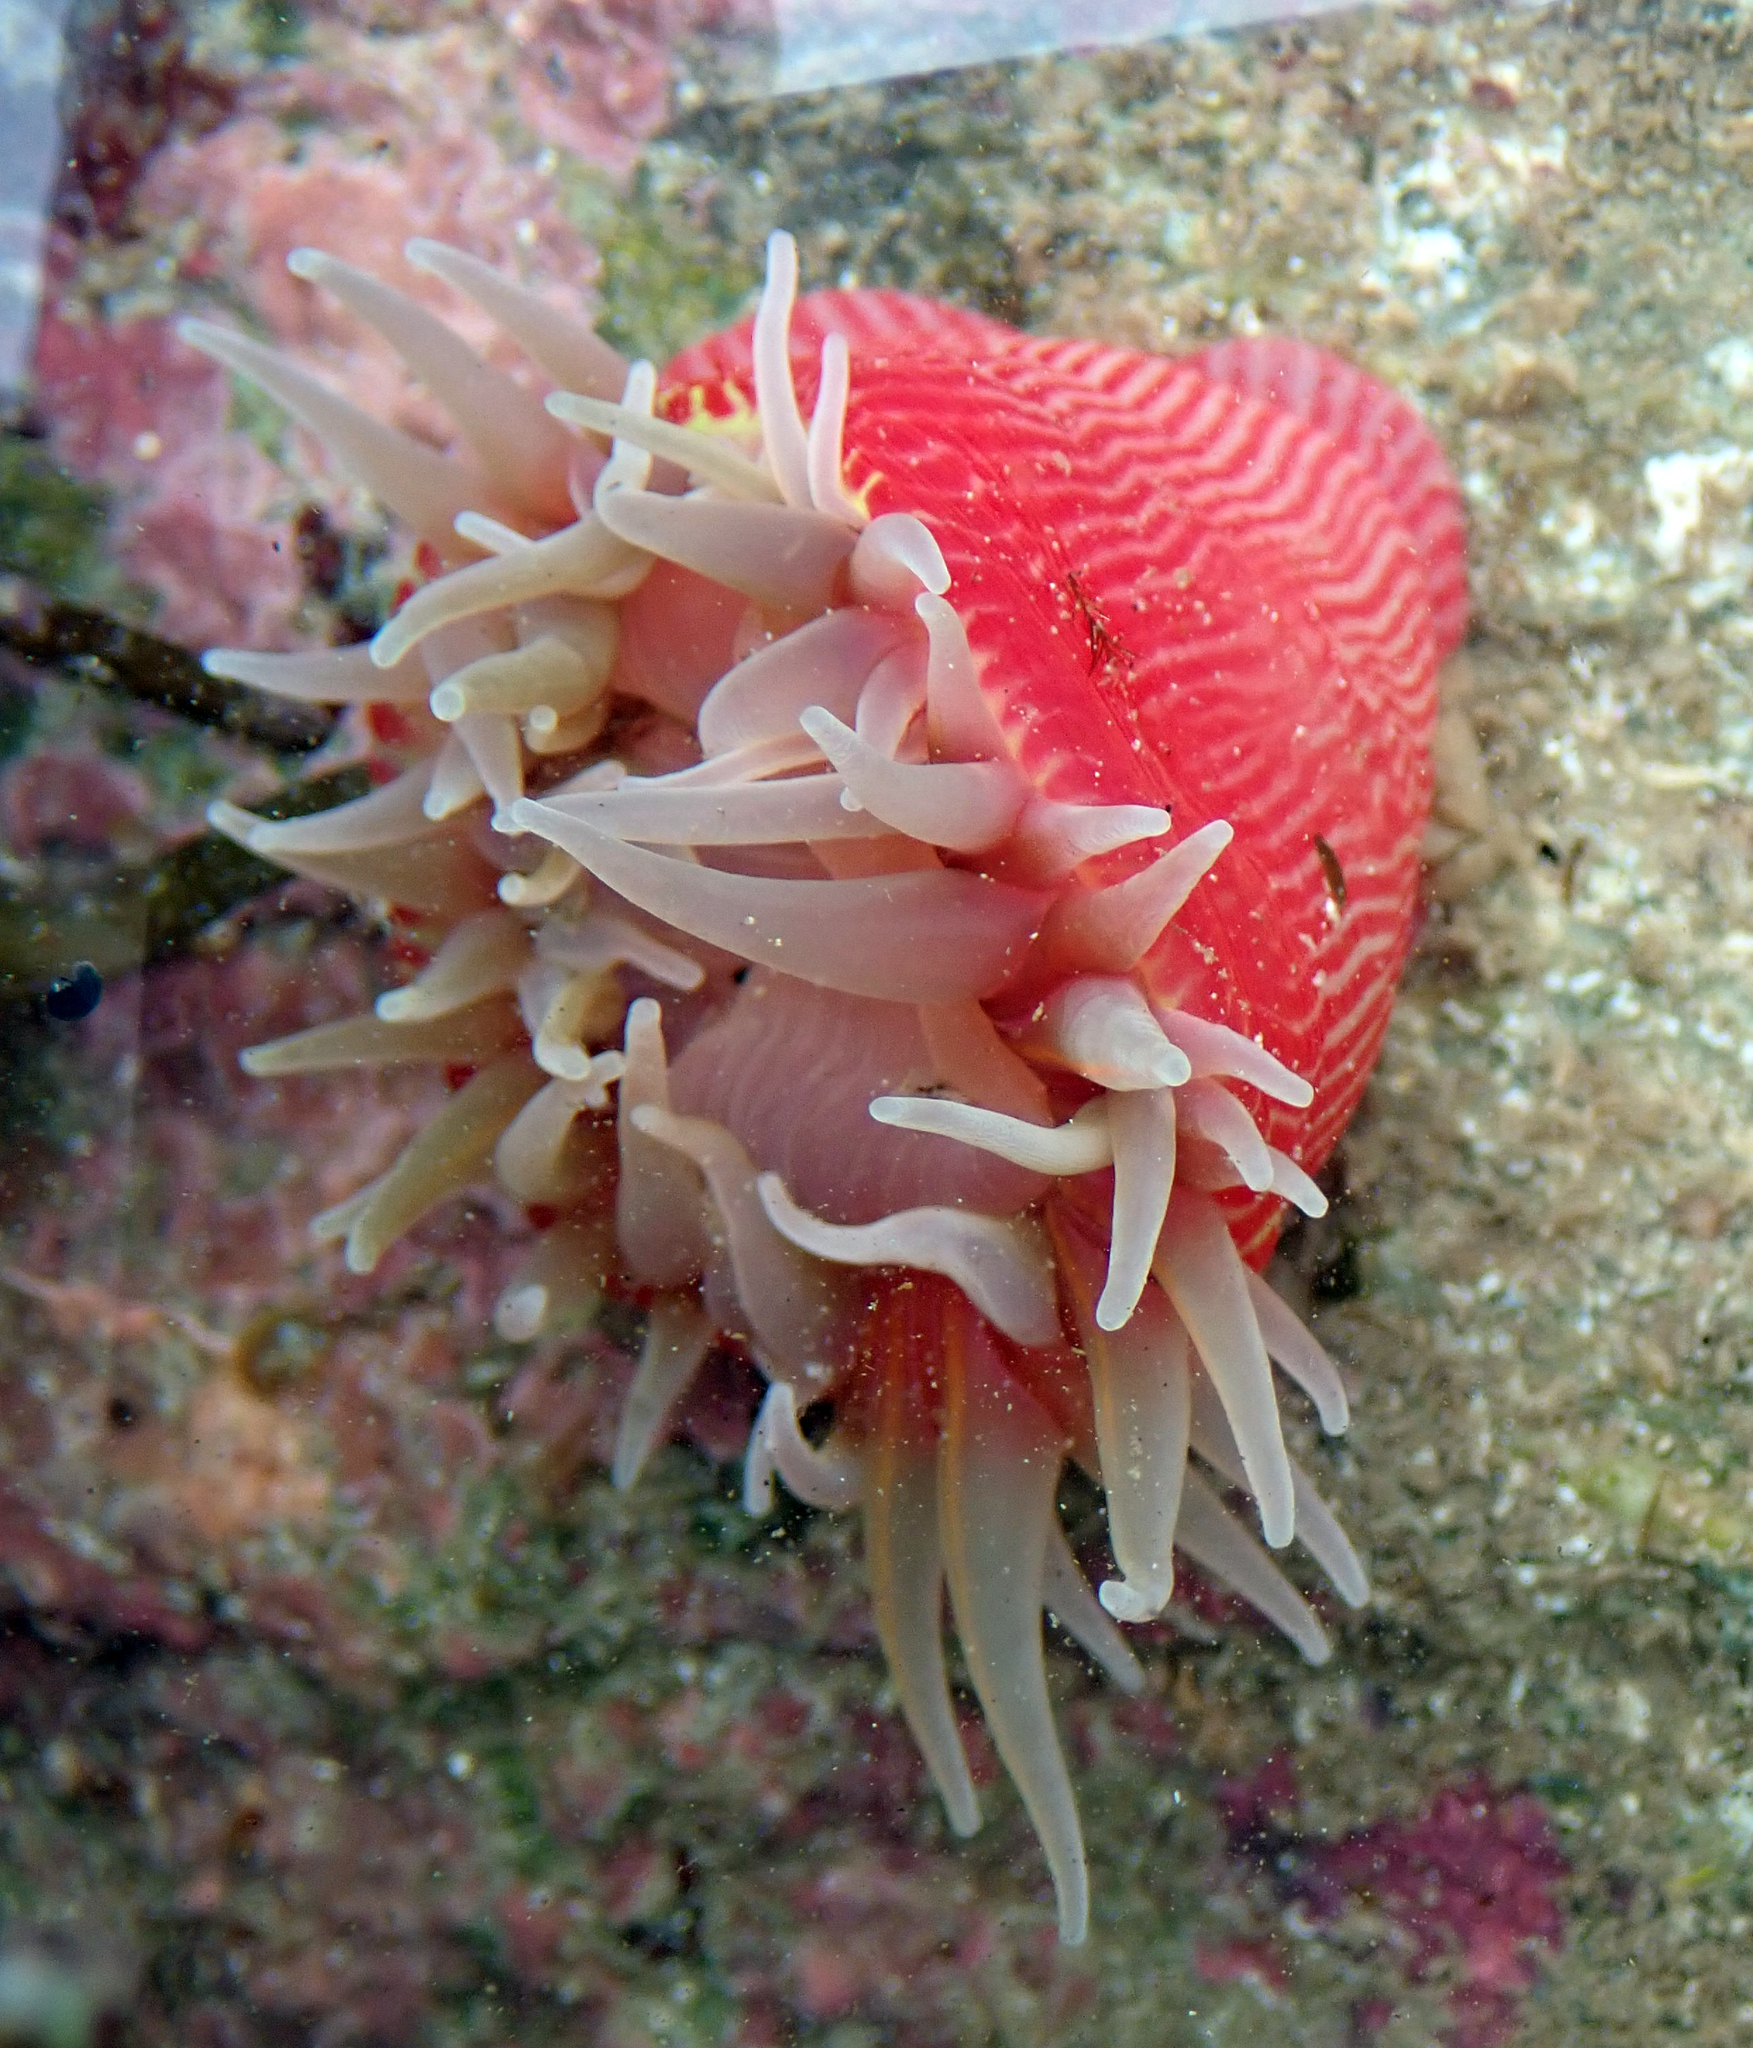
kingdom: Animalia
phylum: Cnidaria
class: Anthozoa
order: Actiniaria
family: Actiniidae
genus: Epiactis
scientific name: Epiactis thompsoni
